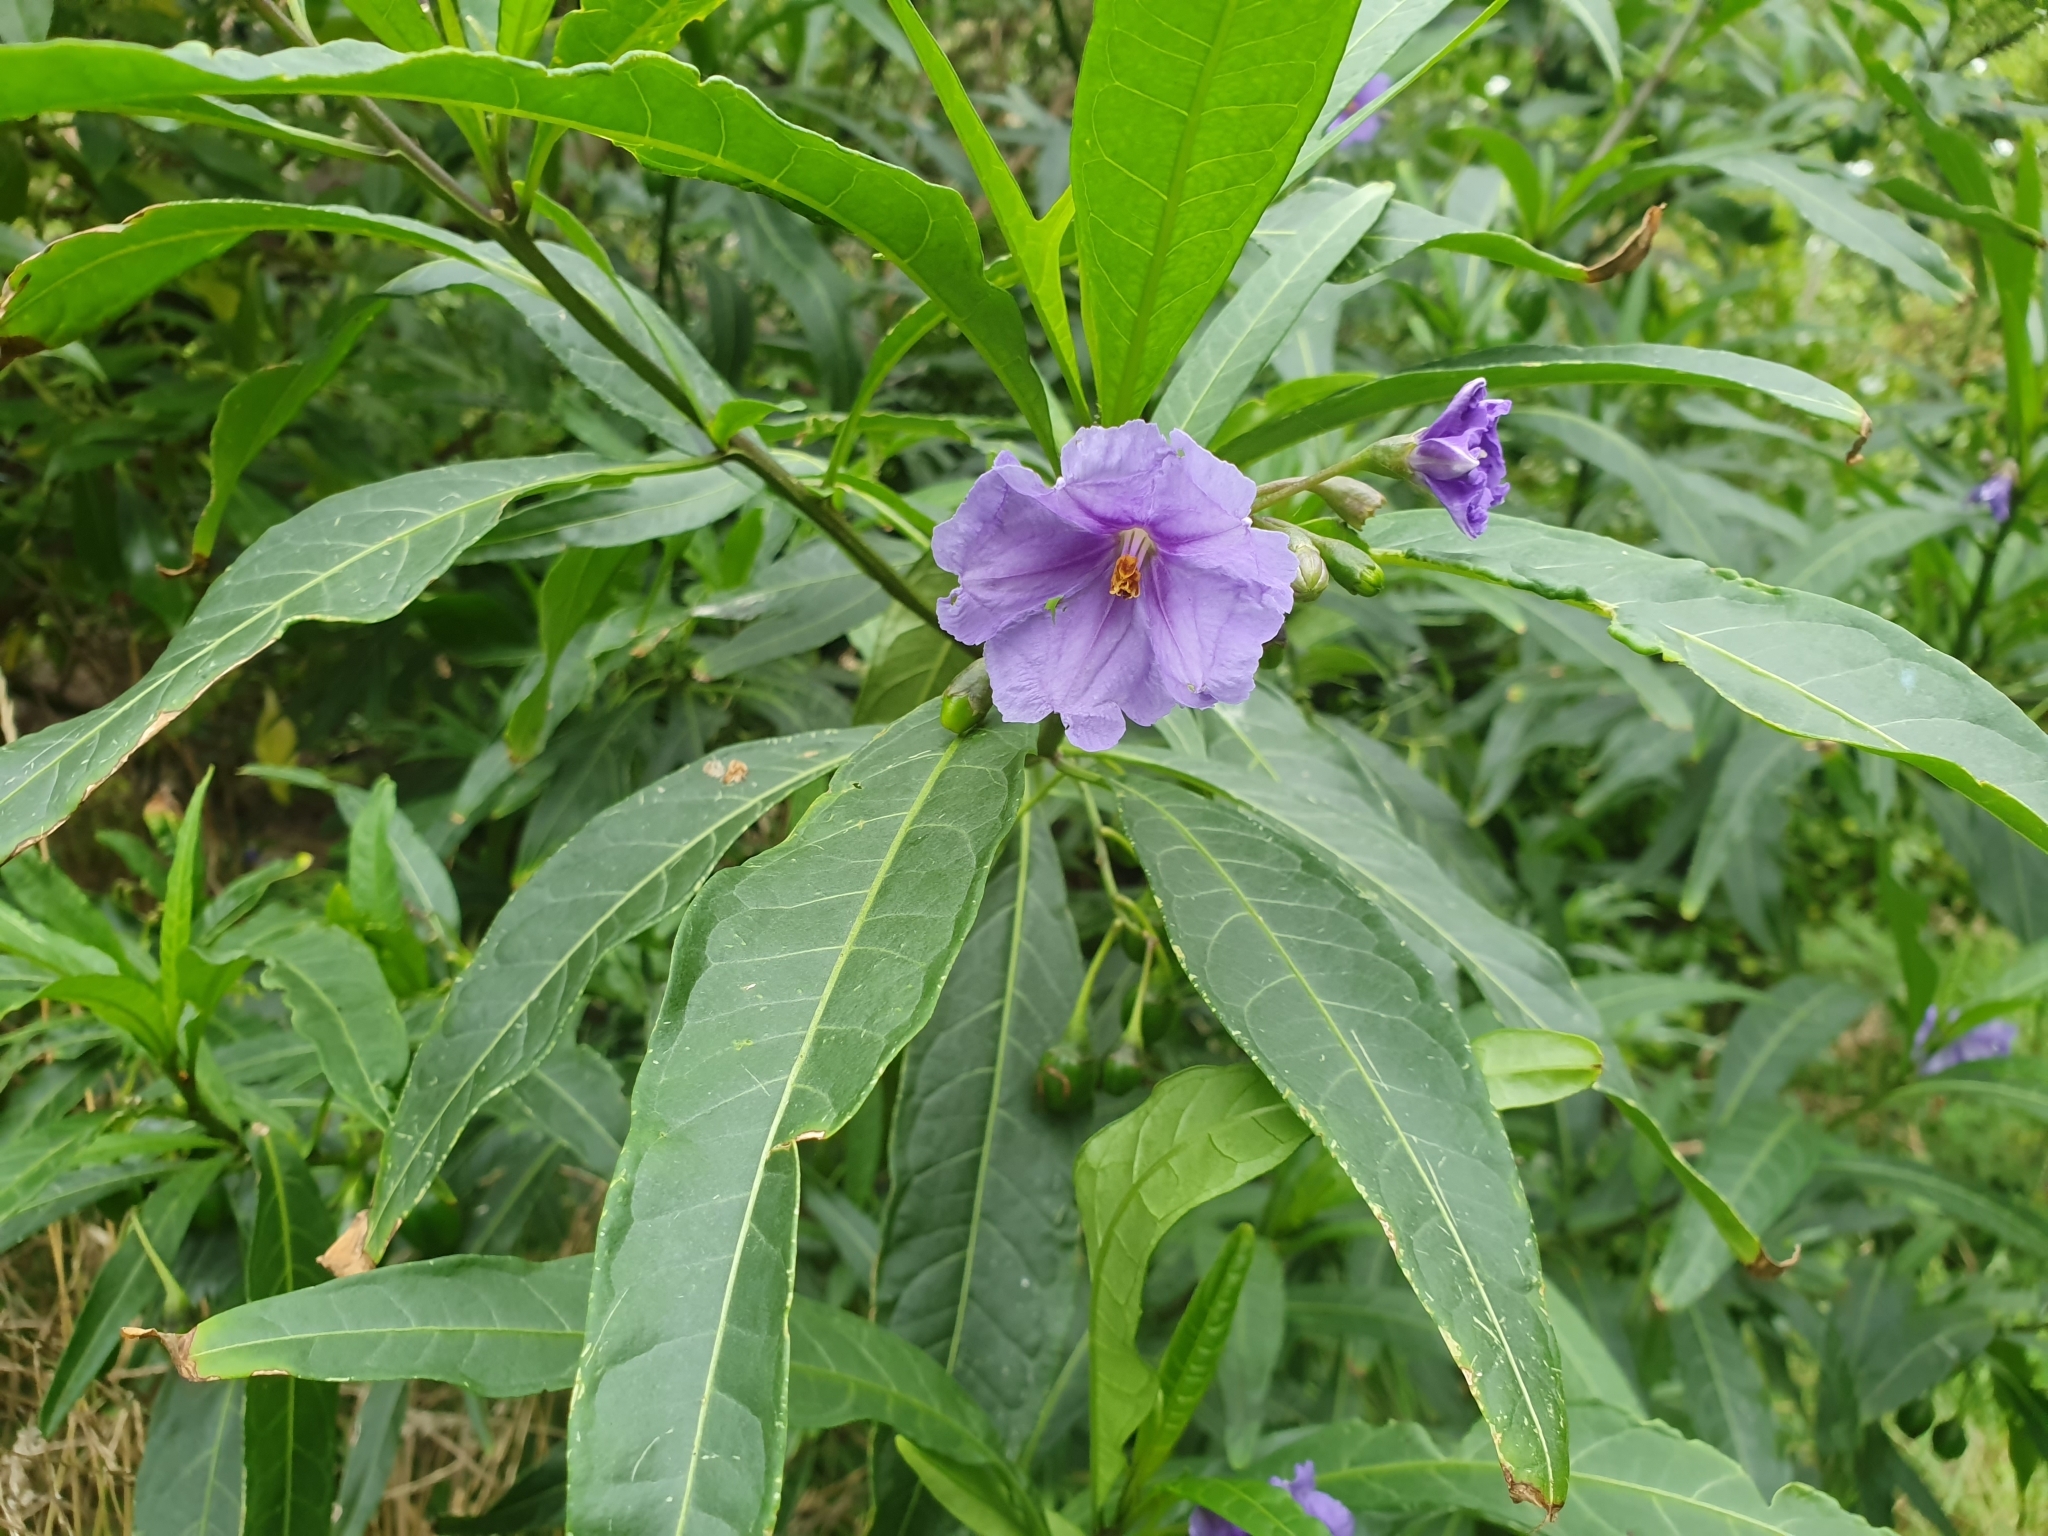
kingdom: Plantae
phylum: Tracheophyta
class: Magnoliopsida
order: Solanales
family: Solanaceae
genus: Solanum
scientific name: Solanum laciniatum
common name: Kangaroo-apple
